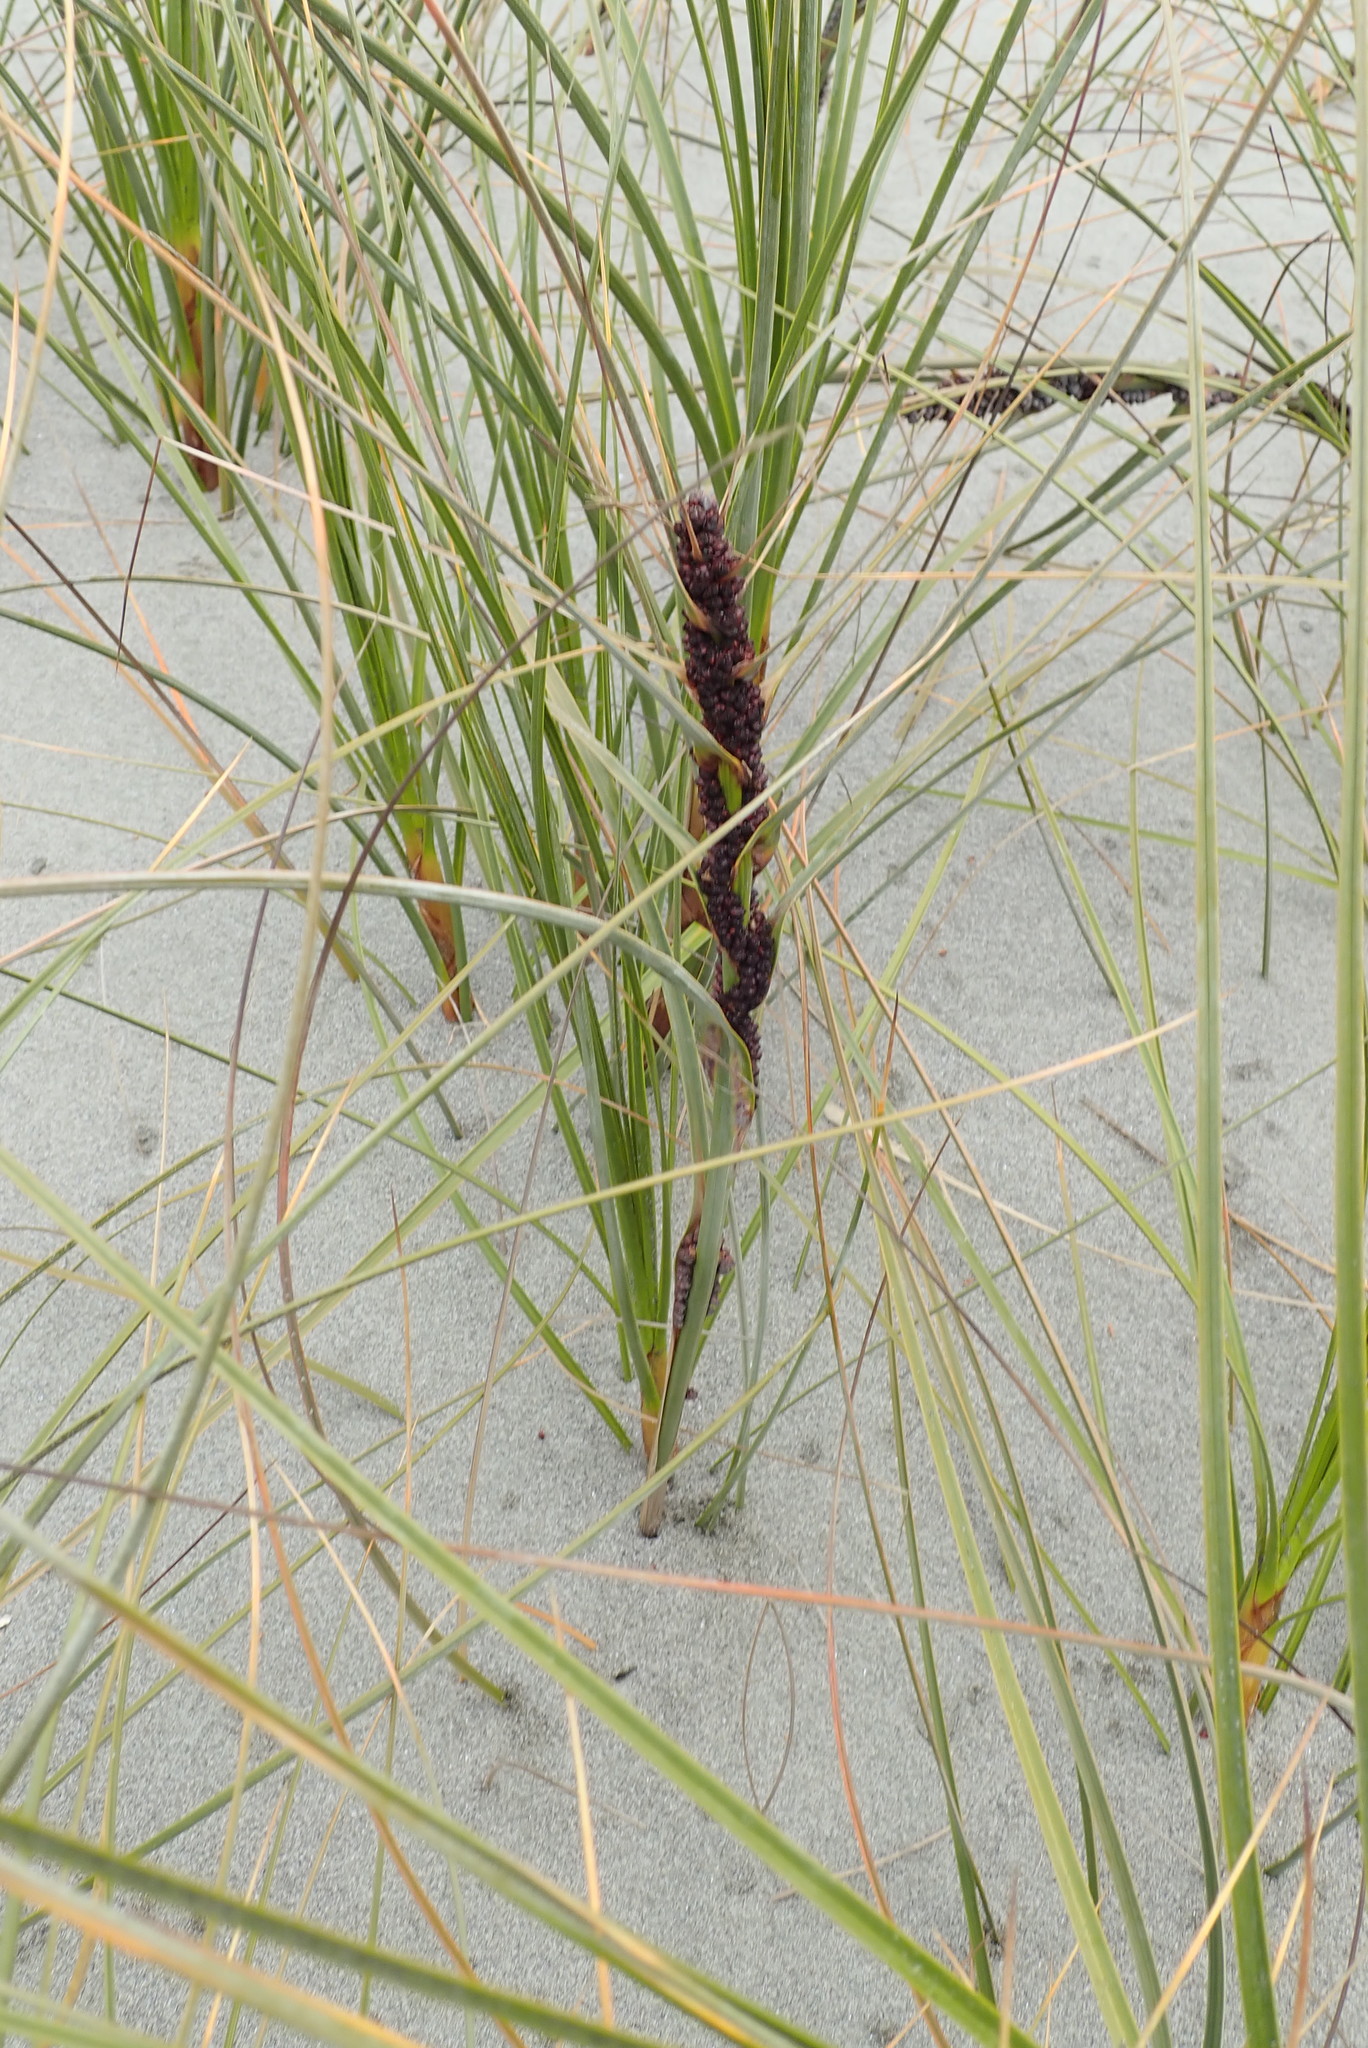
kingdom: Plantae
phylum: Tracheophyta
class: Liliopsida
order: Poales
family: Cyperaceae
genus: Ficinia
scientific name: Ficinia spiralis
